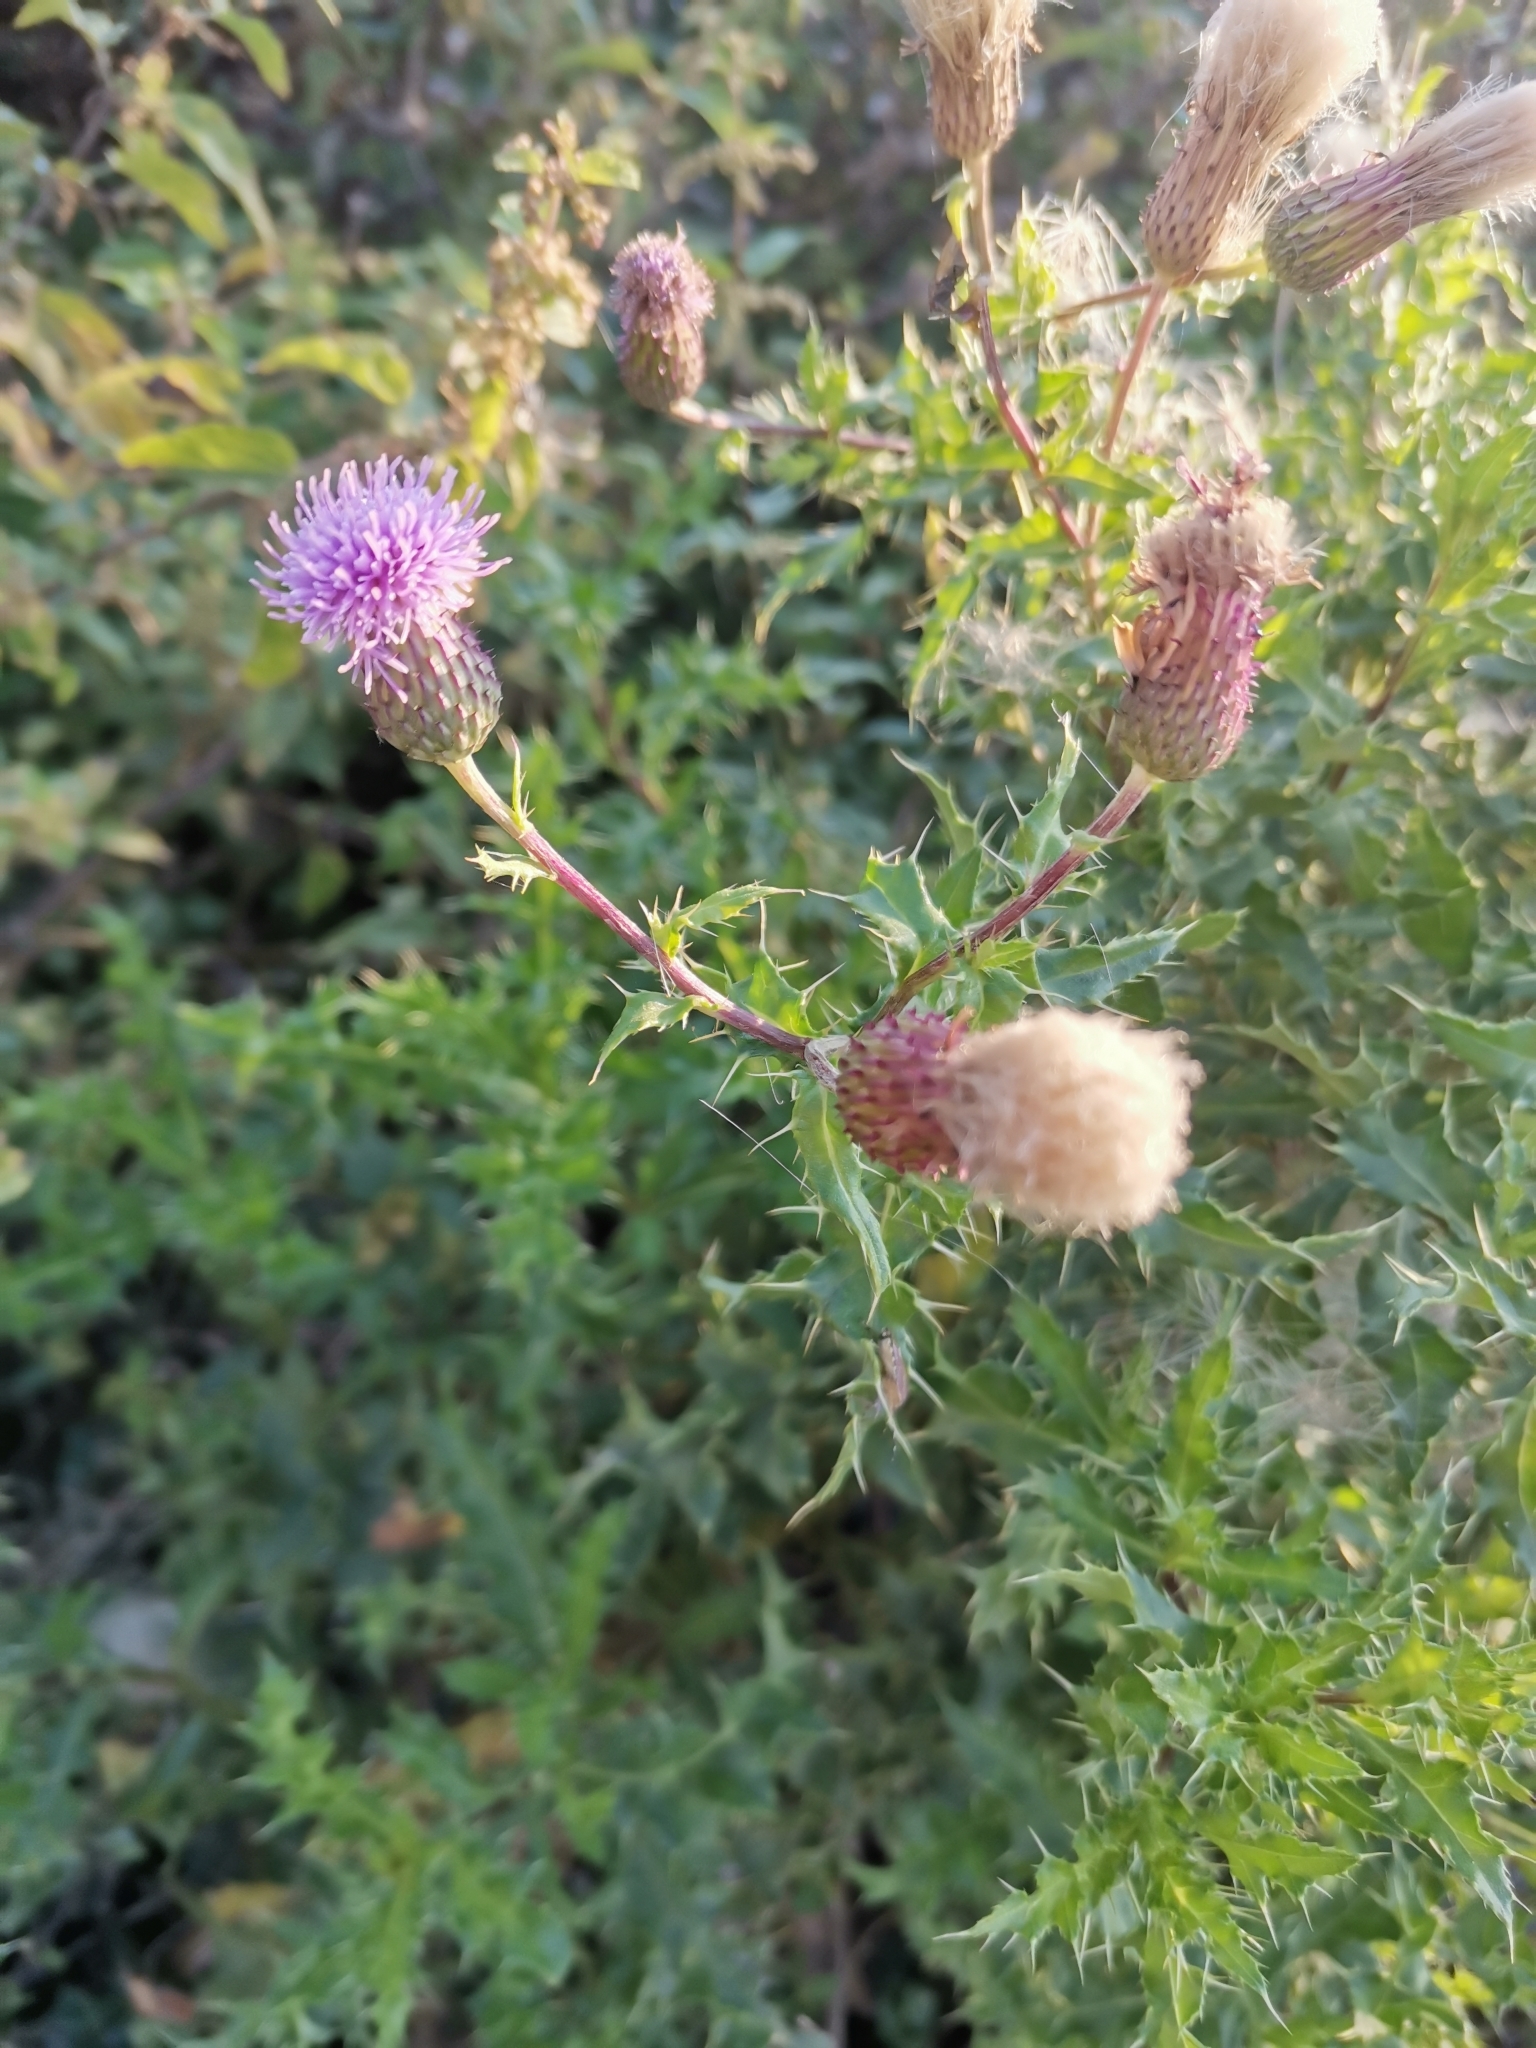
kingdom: Plantae
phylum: Tracheophyta
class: Magnoliopsida
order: Asterales
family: Asteraceae
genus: Cirsium
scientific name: Cirsium arvense
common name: Creeping thistle
